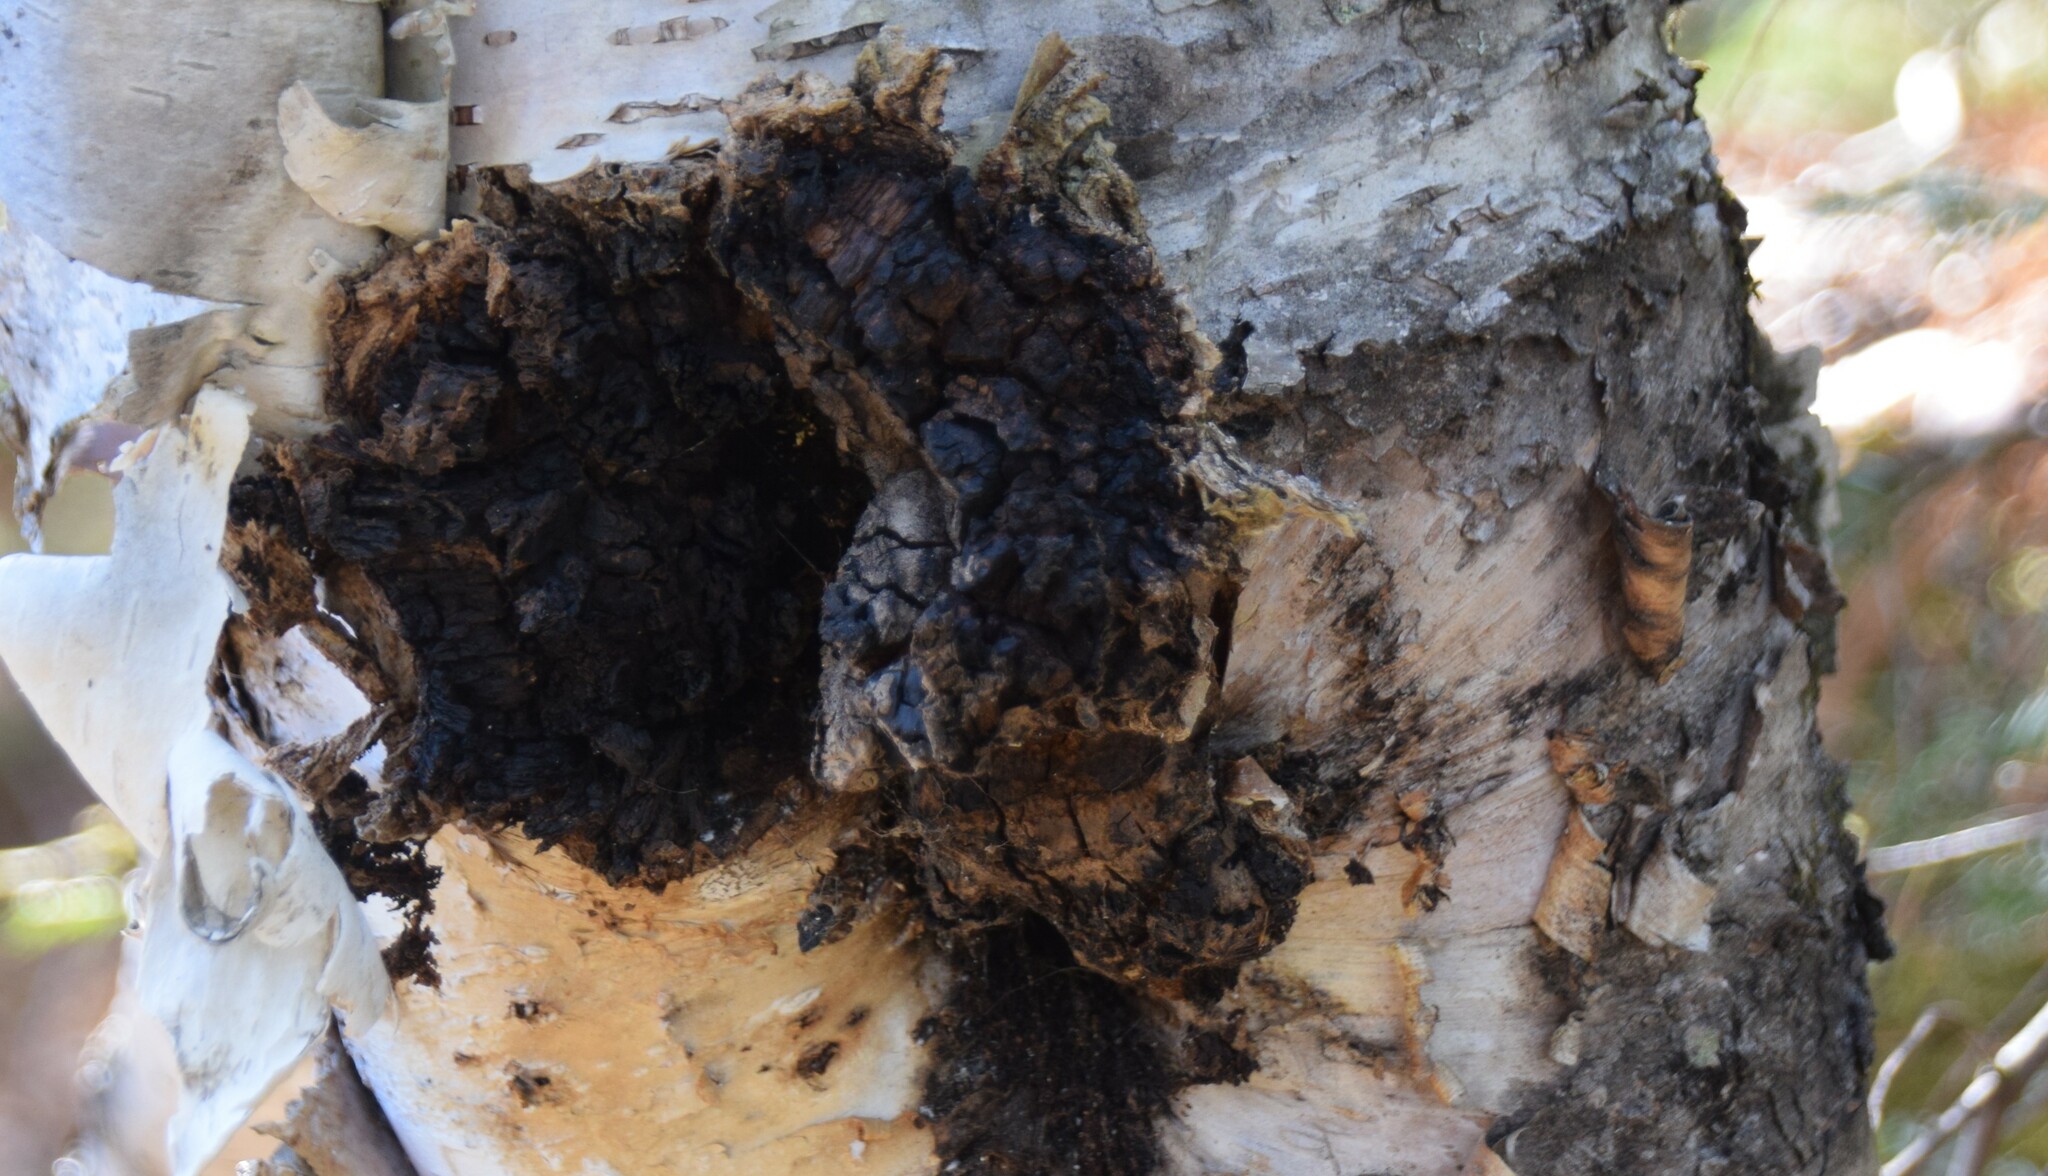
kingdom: Fungi
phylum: Basidiomycota
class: Agaricomycetes
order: Hymenochaetales
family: Hymenochaetaceae
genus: Inonotus
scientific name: Inonotus obliquus
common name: Chaga
